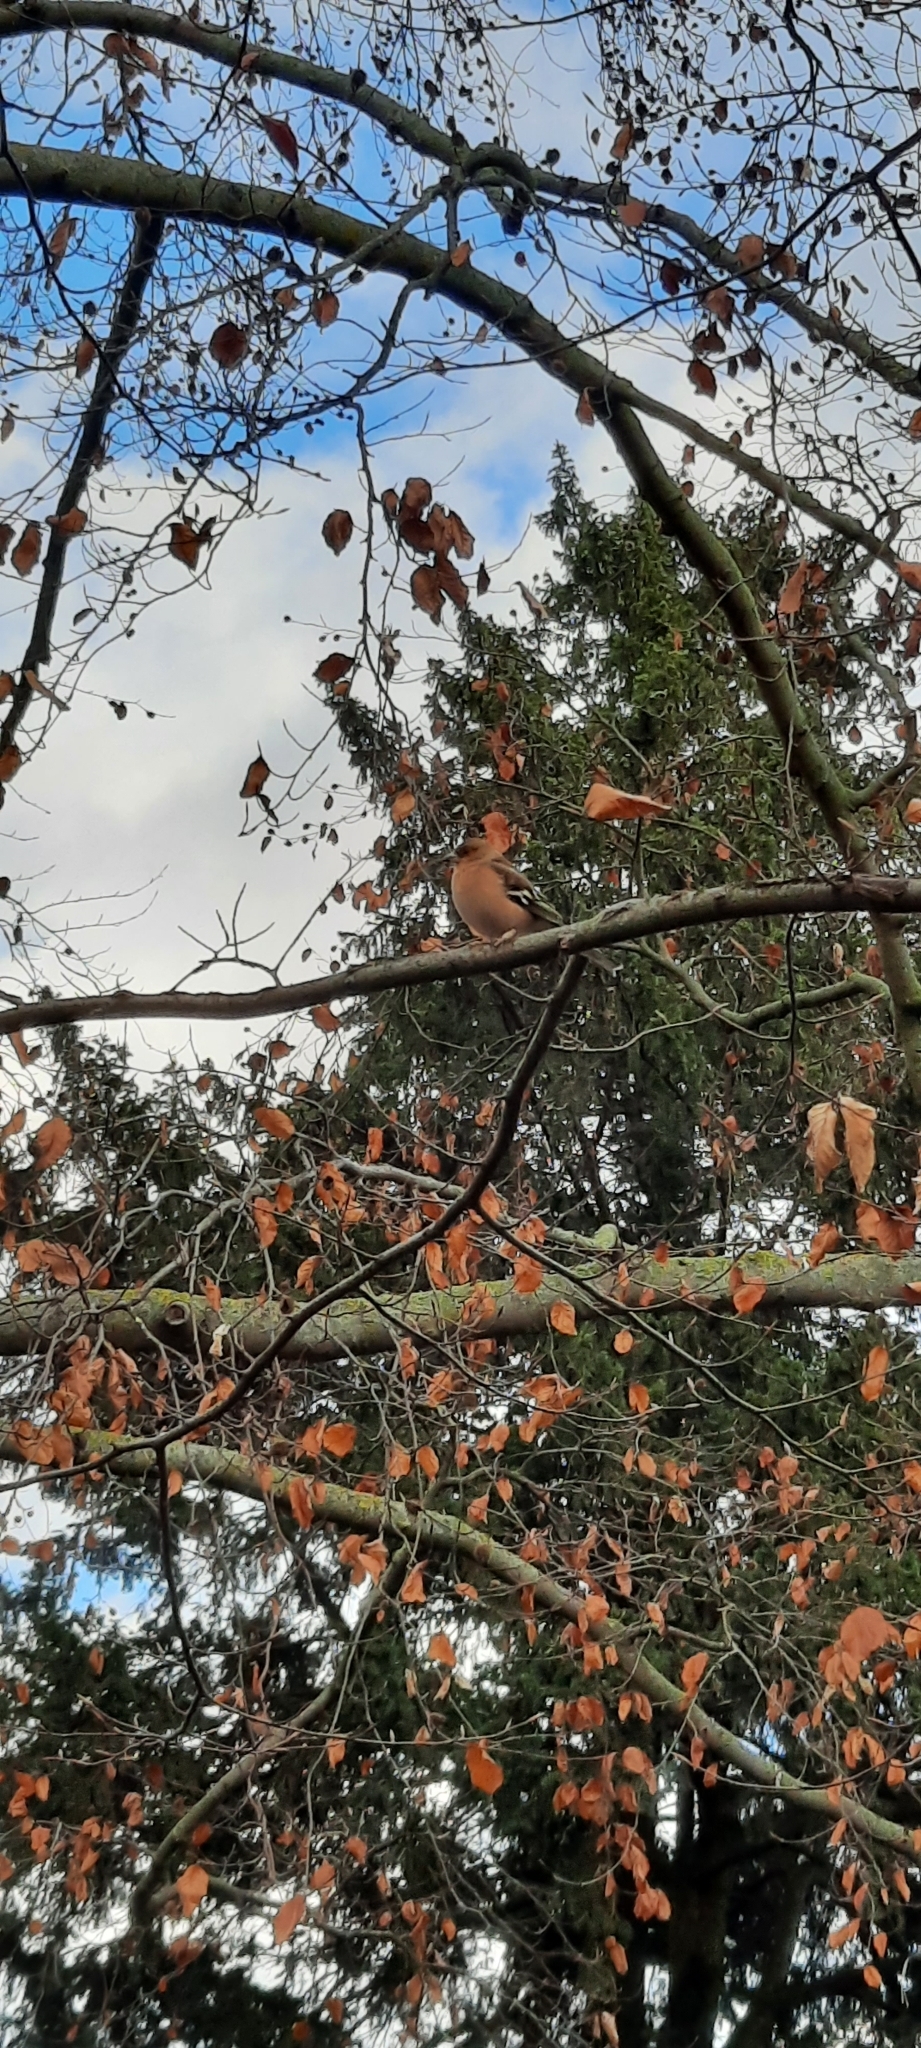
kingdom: Animalia
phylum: Chordata
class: Aves
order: Passeriformes
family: Fringillidae
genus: Fringilla
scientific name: Fringilla coelebs
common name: Common chaffinch
